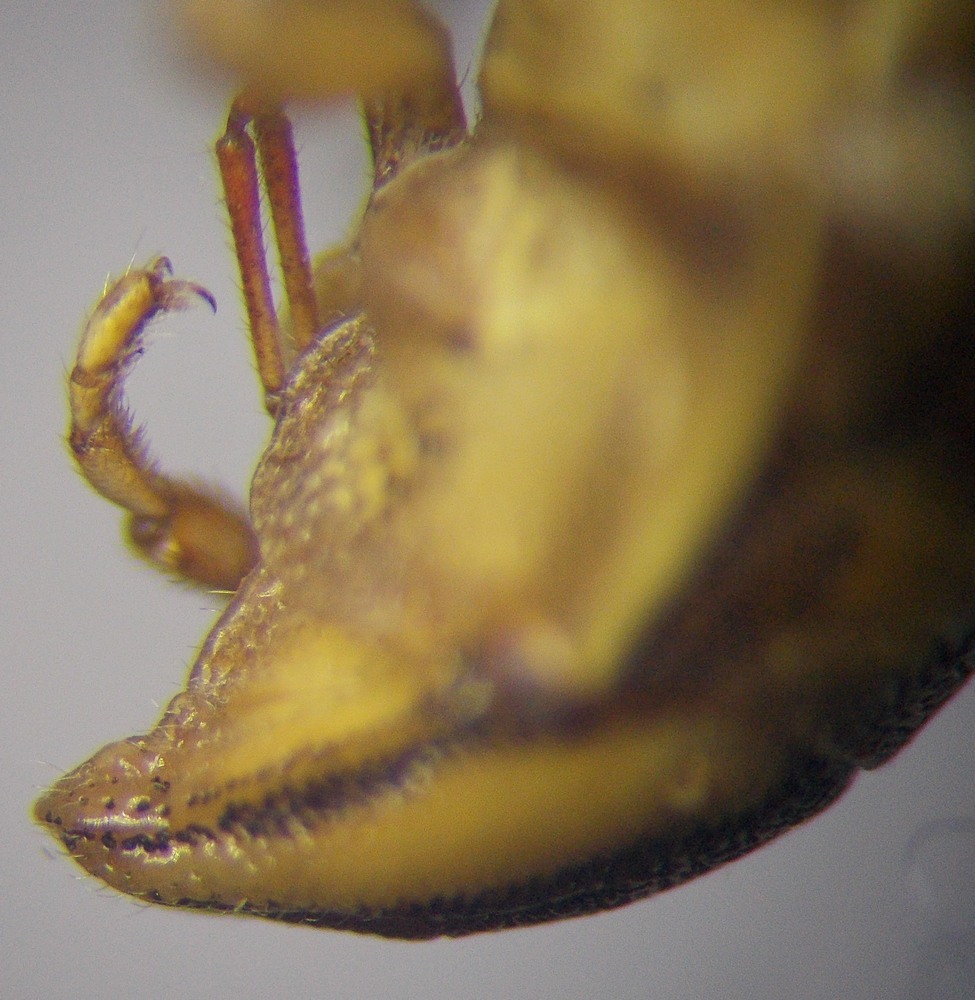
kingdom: Animalia
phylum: Arthropoda
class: Insecta
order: Hemiptera
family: Pentatomidae
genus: Aelia
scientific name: Aelia acuminata
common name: Bishop's mitre
